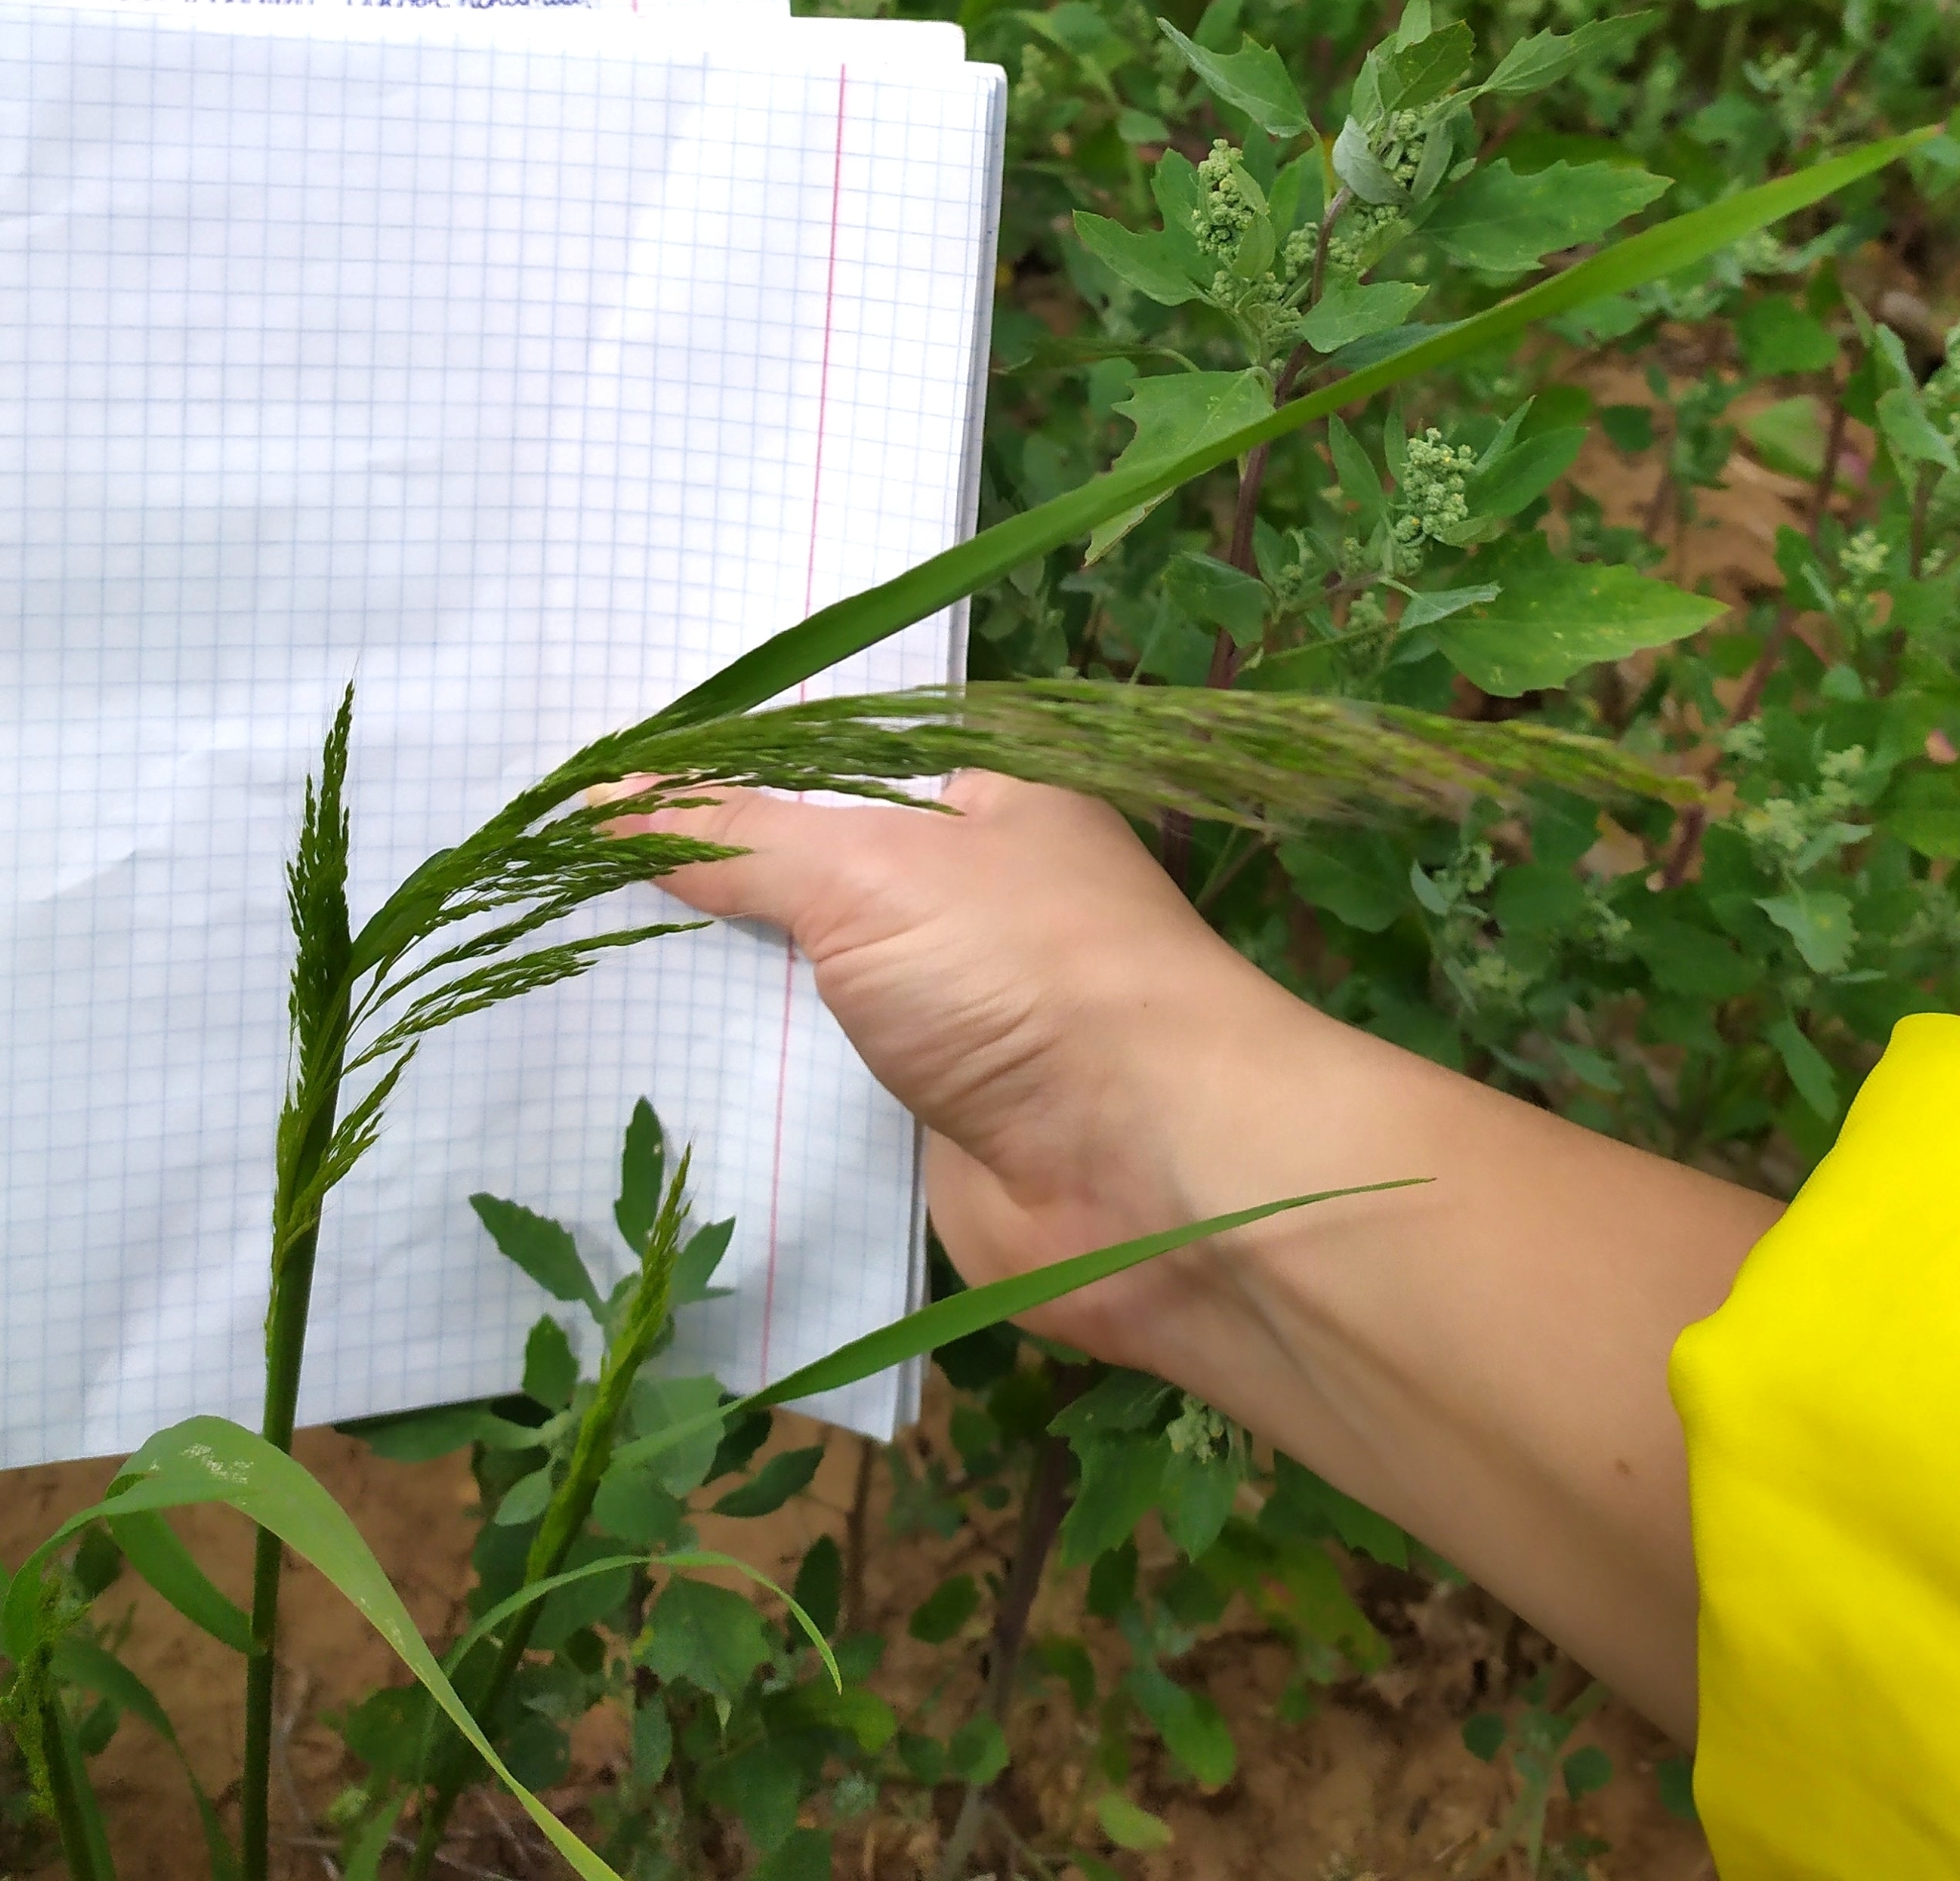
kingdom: Plantae
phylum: Tracheophyta
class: Liliopsida
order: Poales
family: Poaceae
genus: Apera
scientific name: Apera spica-venti
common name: Loose silky-bent
